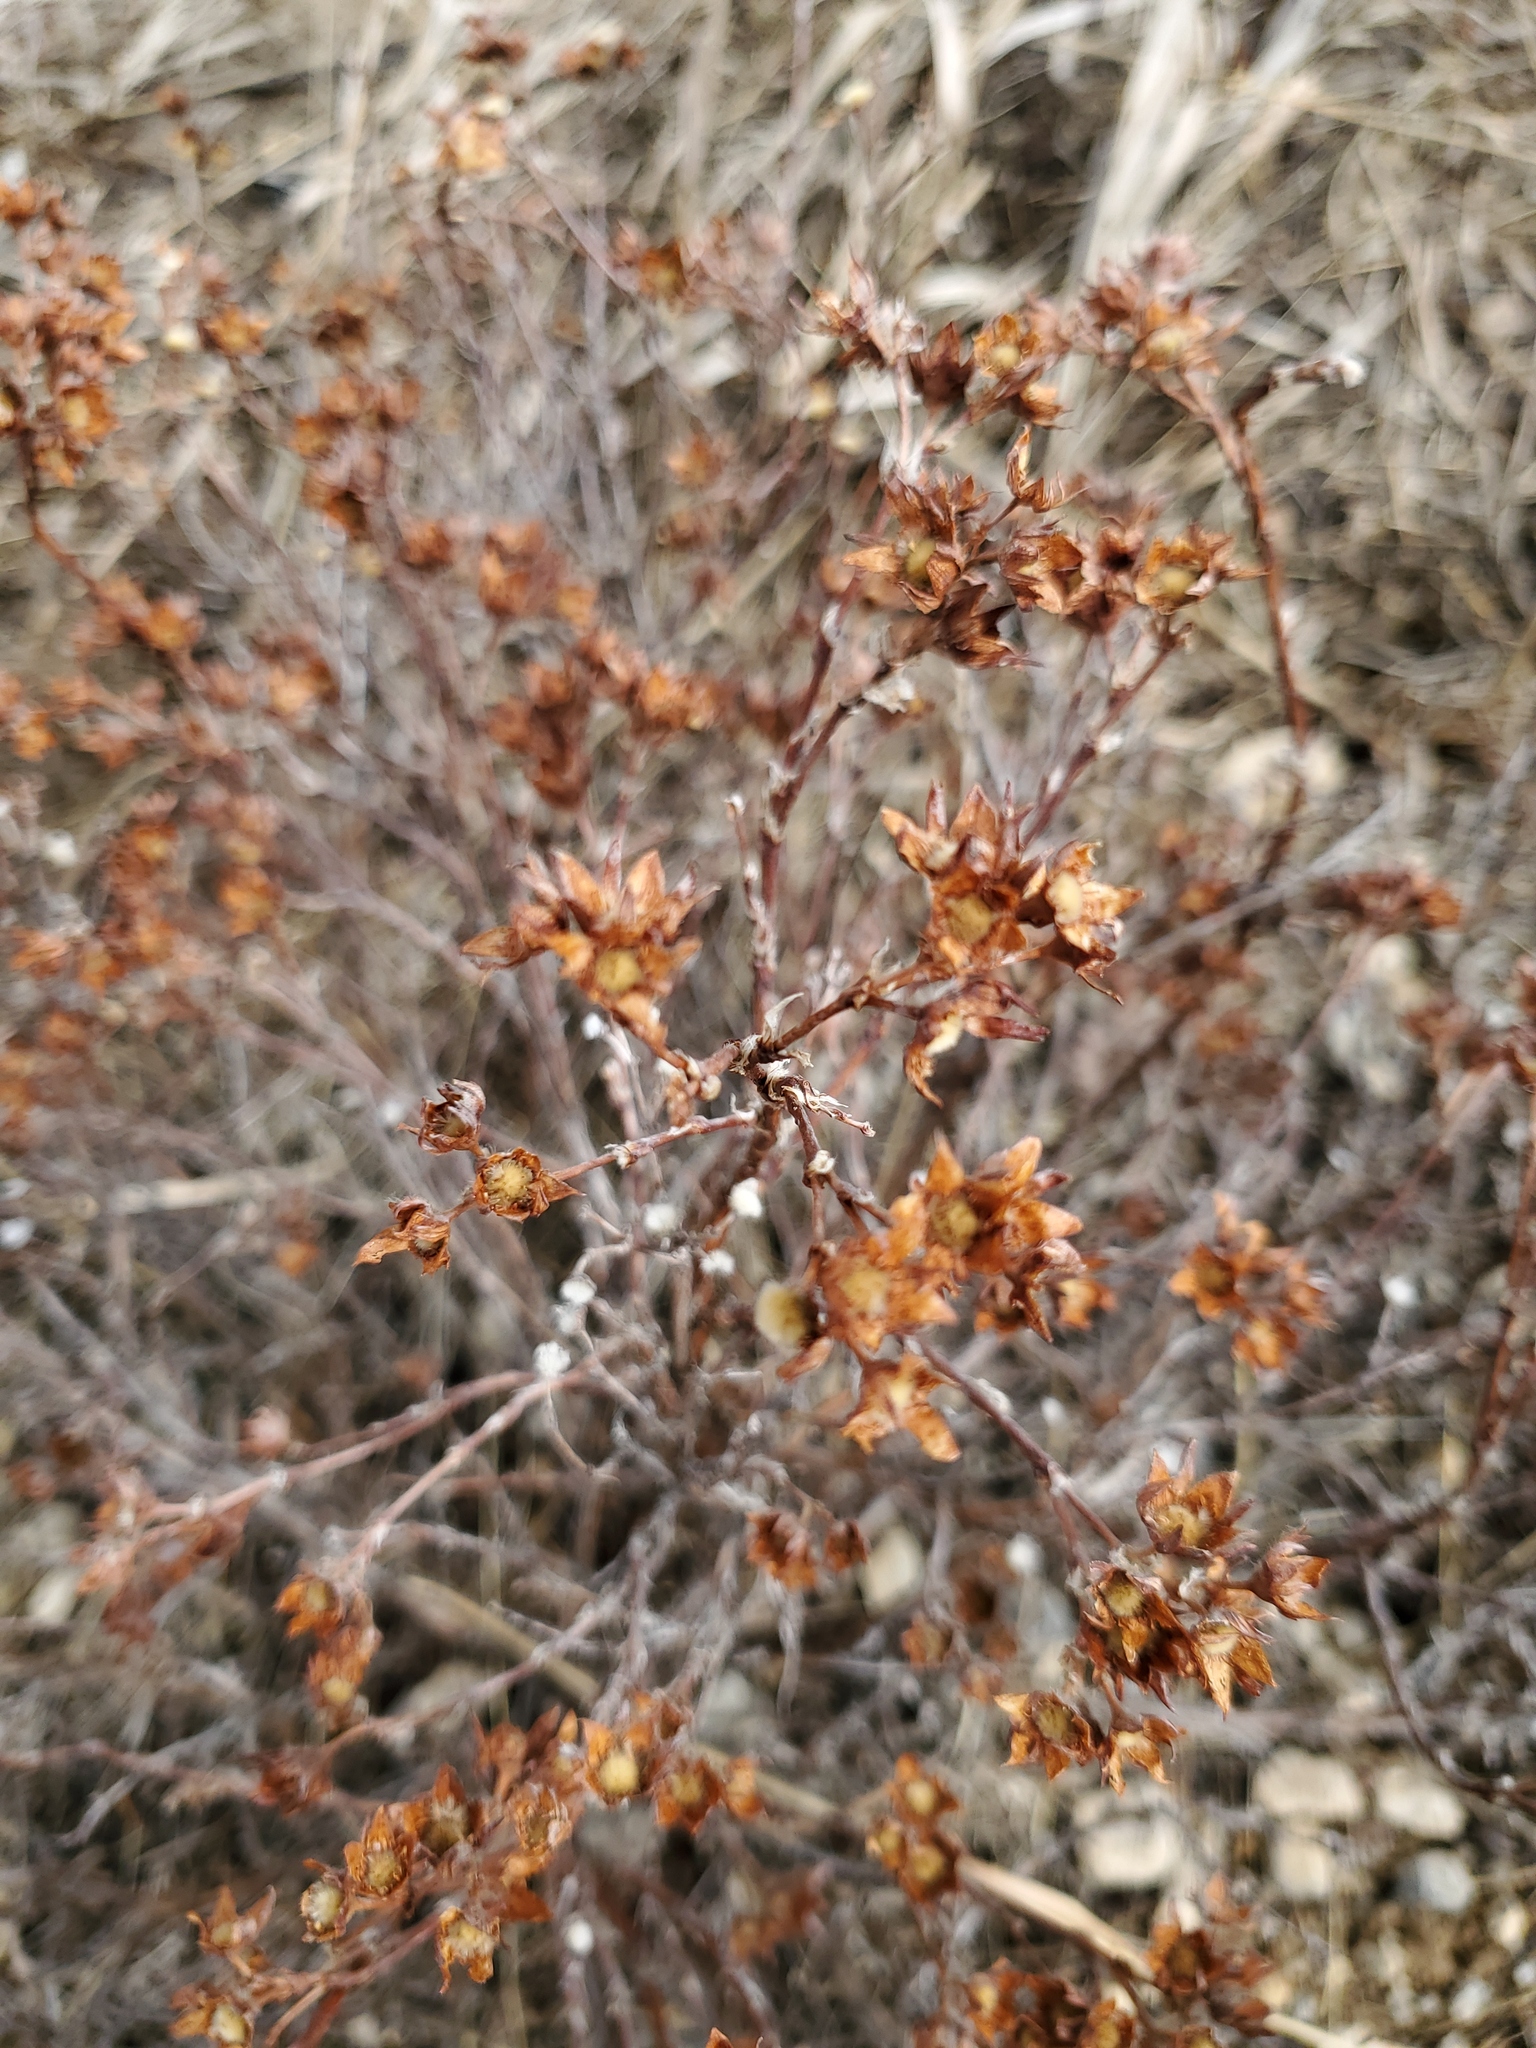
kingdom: Plantae
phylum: Tracheophyta
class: Magnoliopsida
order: Rosales
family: Rosaceae
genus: Dasiphora
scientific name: Dasiphora fruticosa
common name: Shrubby cinquefoil
